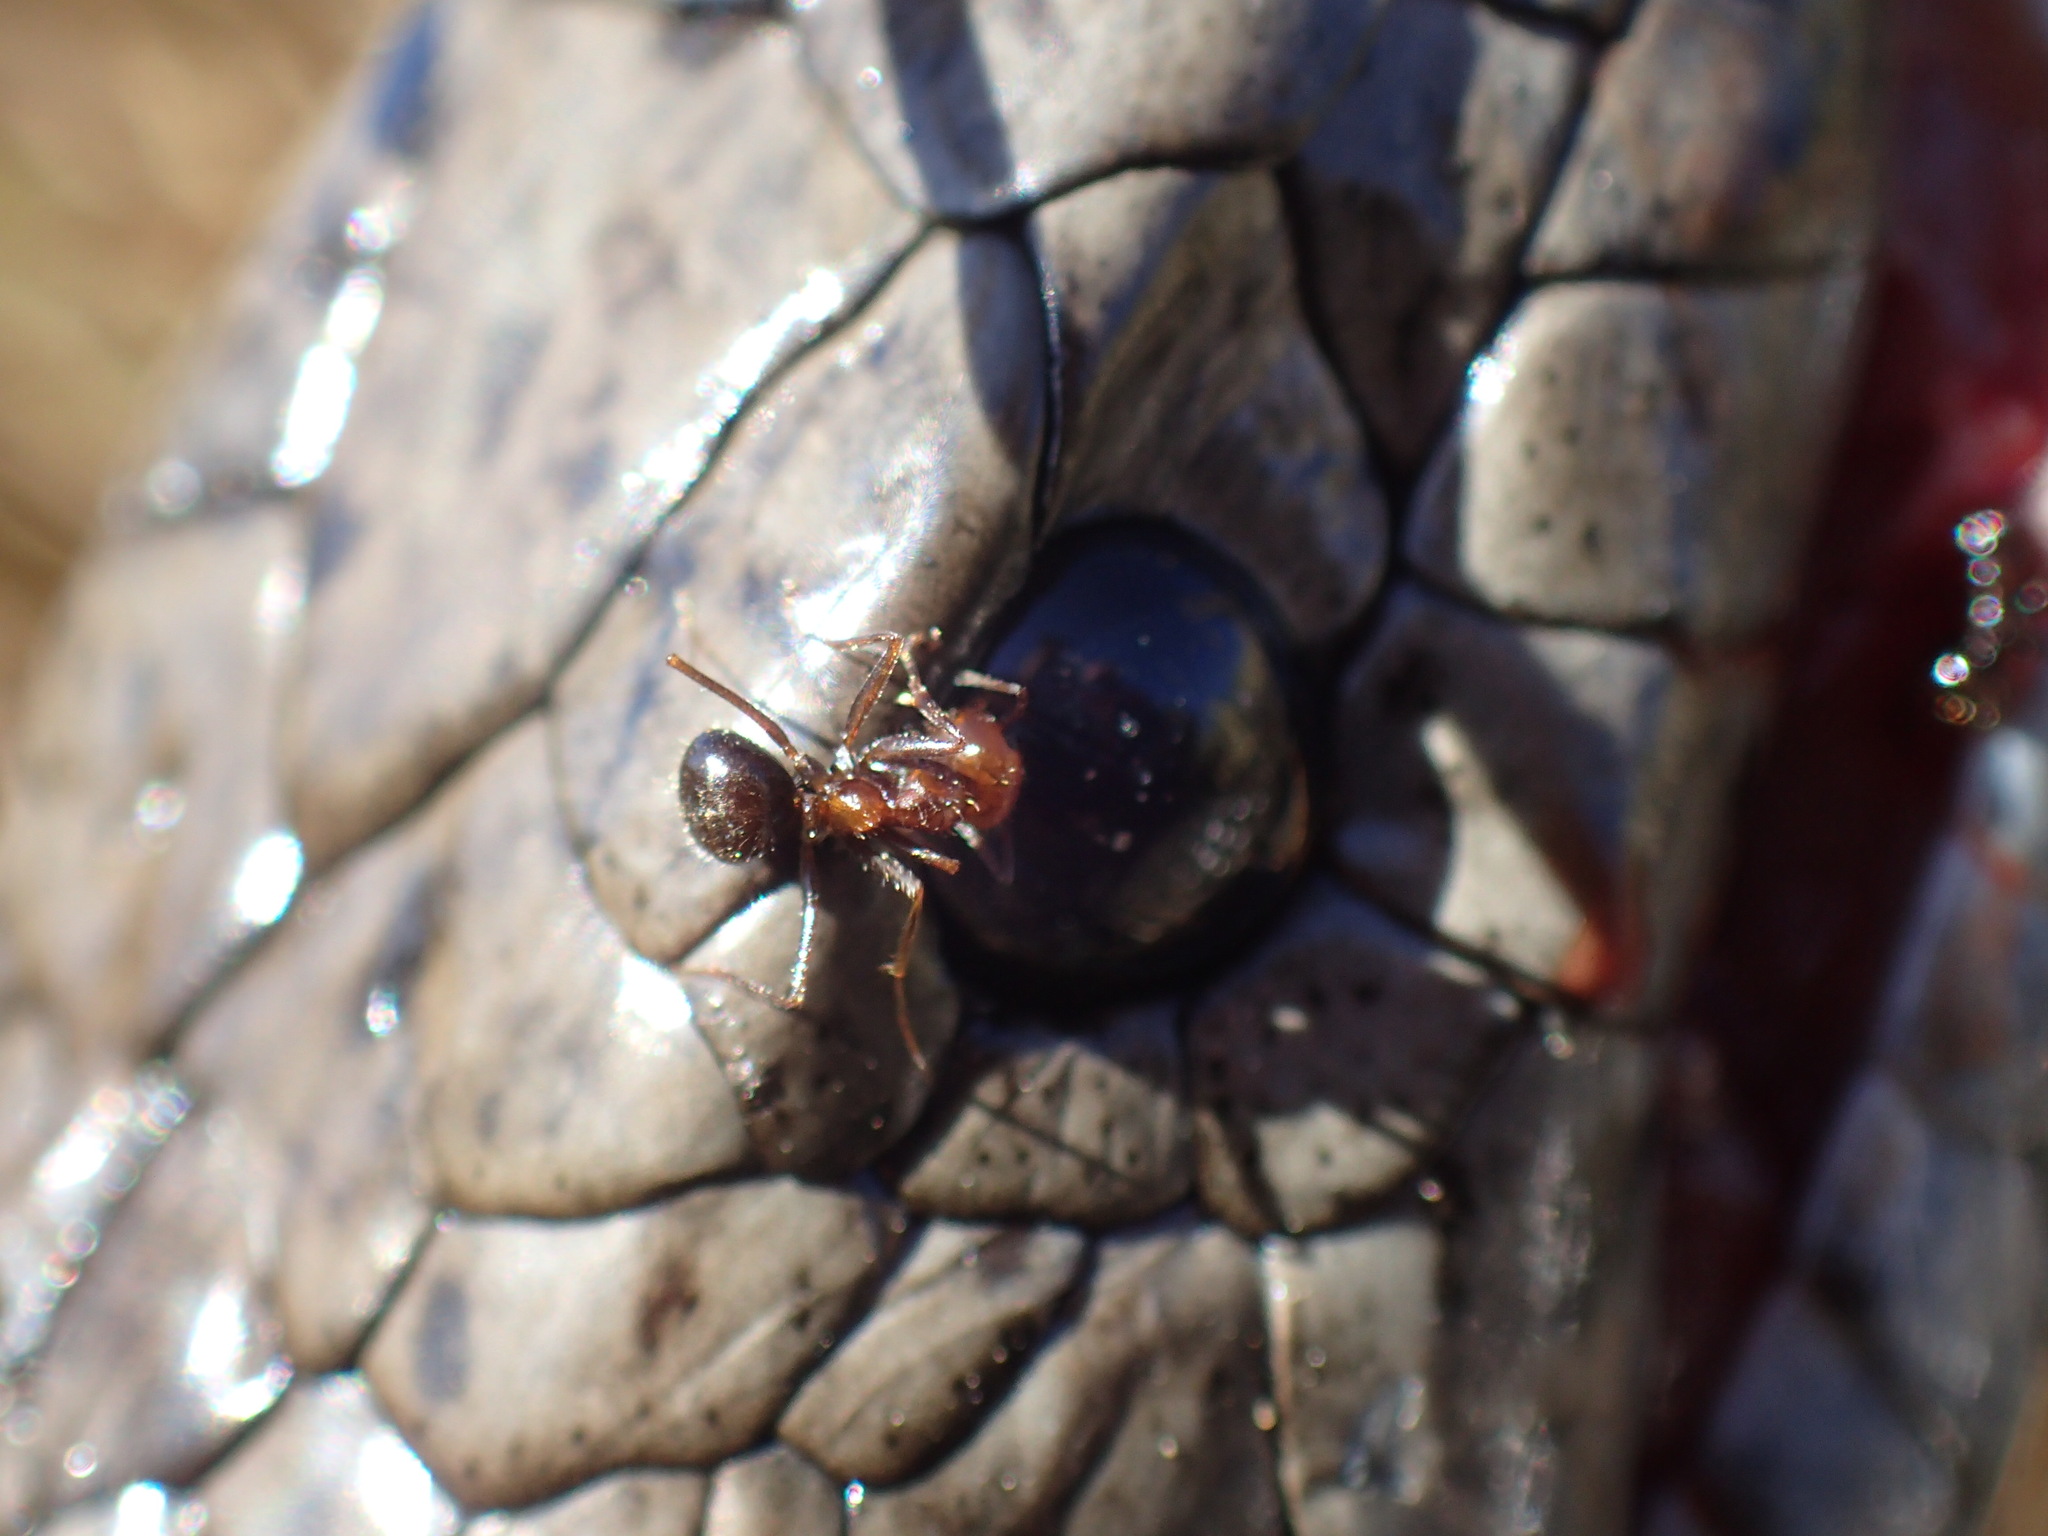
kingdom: Animalia
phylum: Arthropoda
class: Insecta
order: Hymenoptera
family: Formicidae
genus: Anoplolepis
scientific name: Anoplolepis steingroeveri
